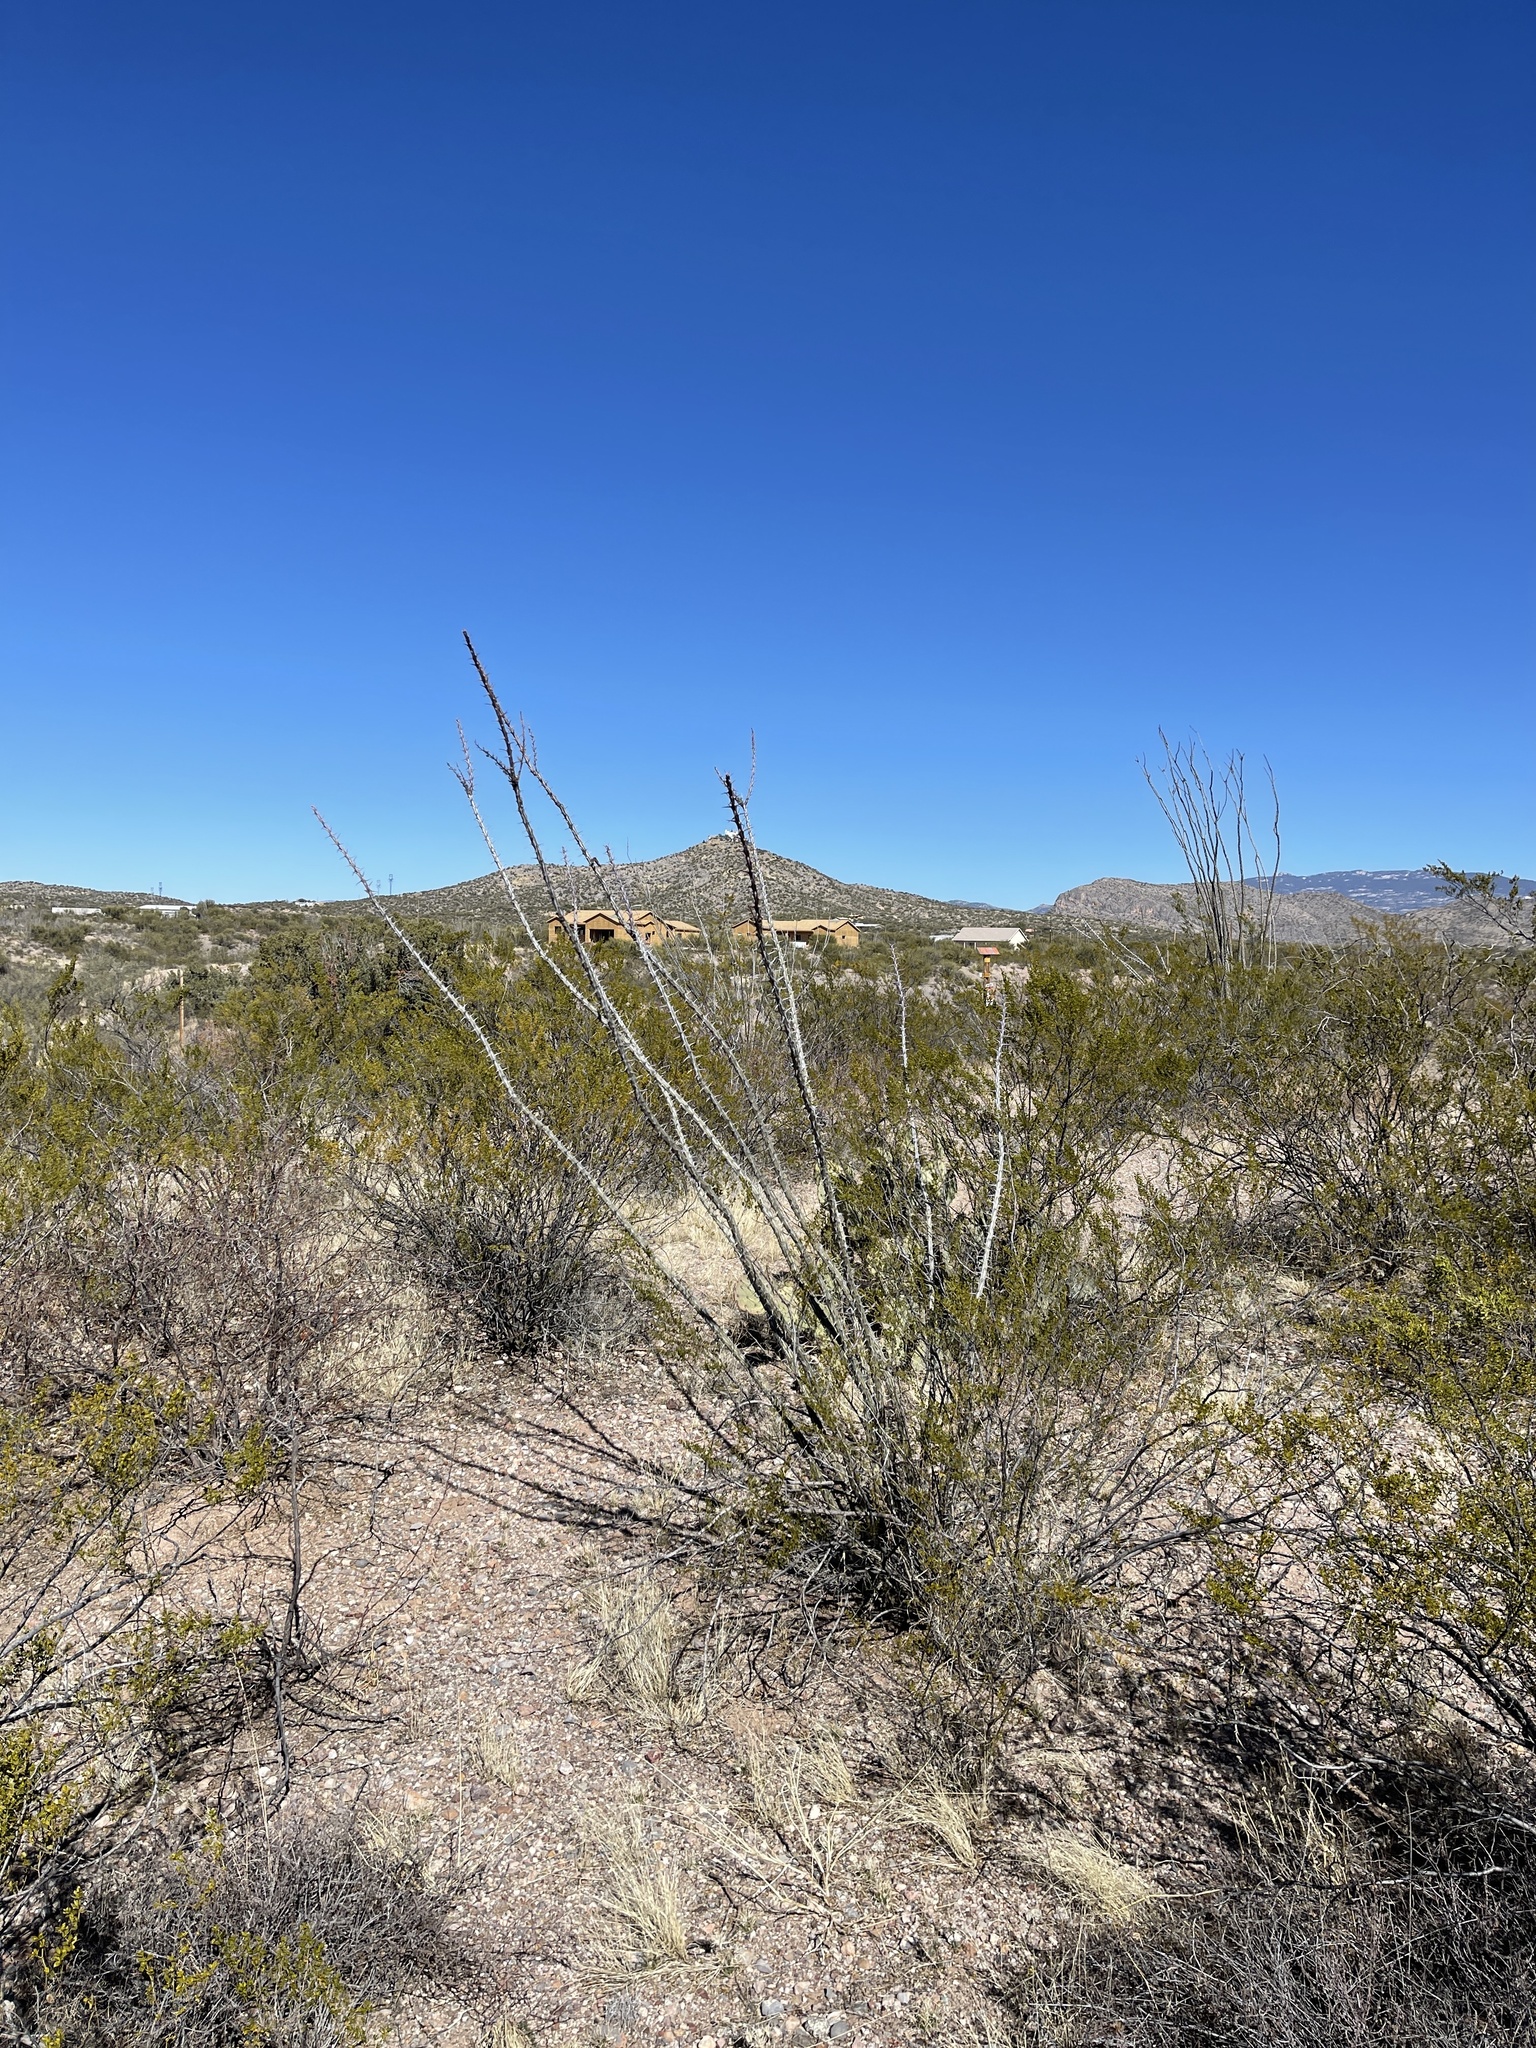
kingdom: Plantae
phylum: Tracheophyta
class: Magnoliopsida
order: Ericales
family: Fouquieriaceae
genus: Fouquieria
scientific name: Fouquieria splendens
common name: Vine-cactus
